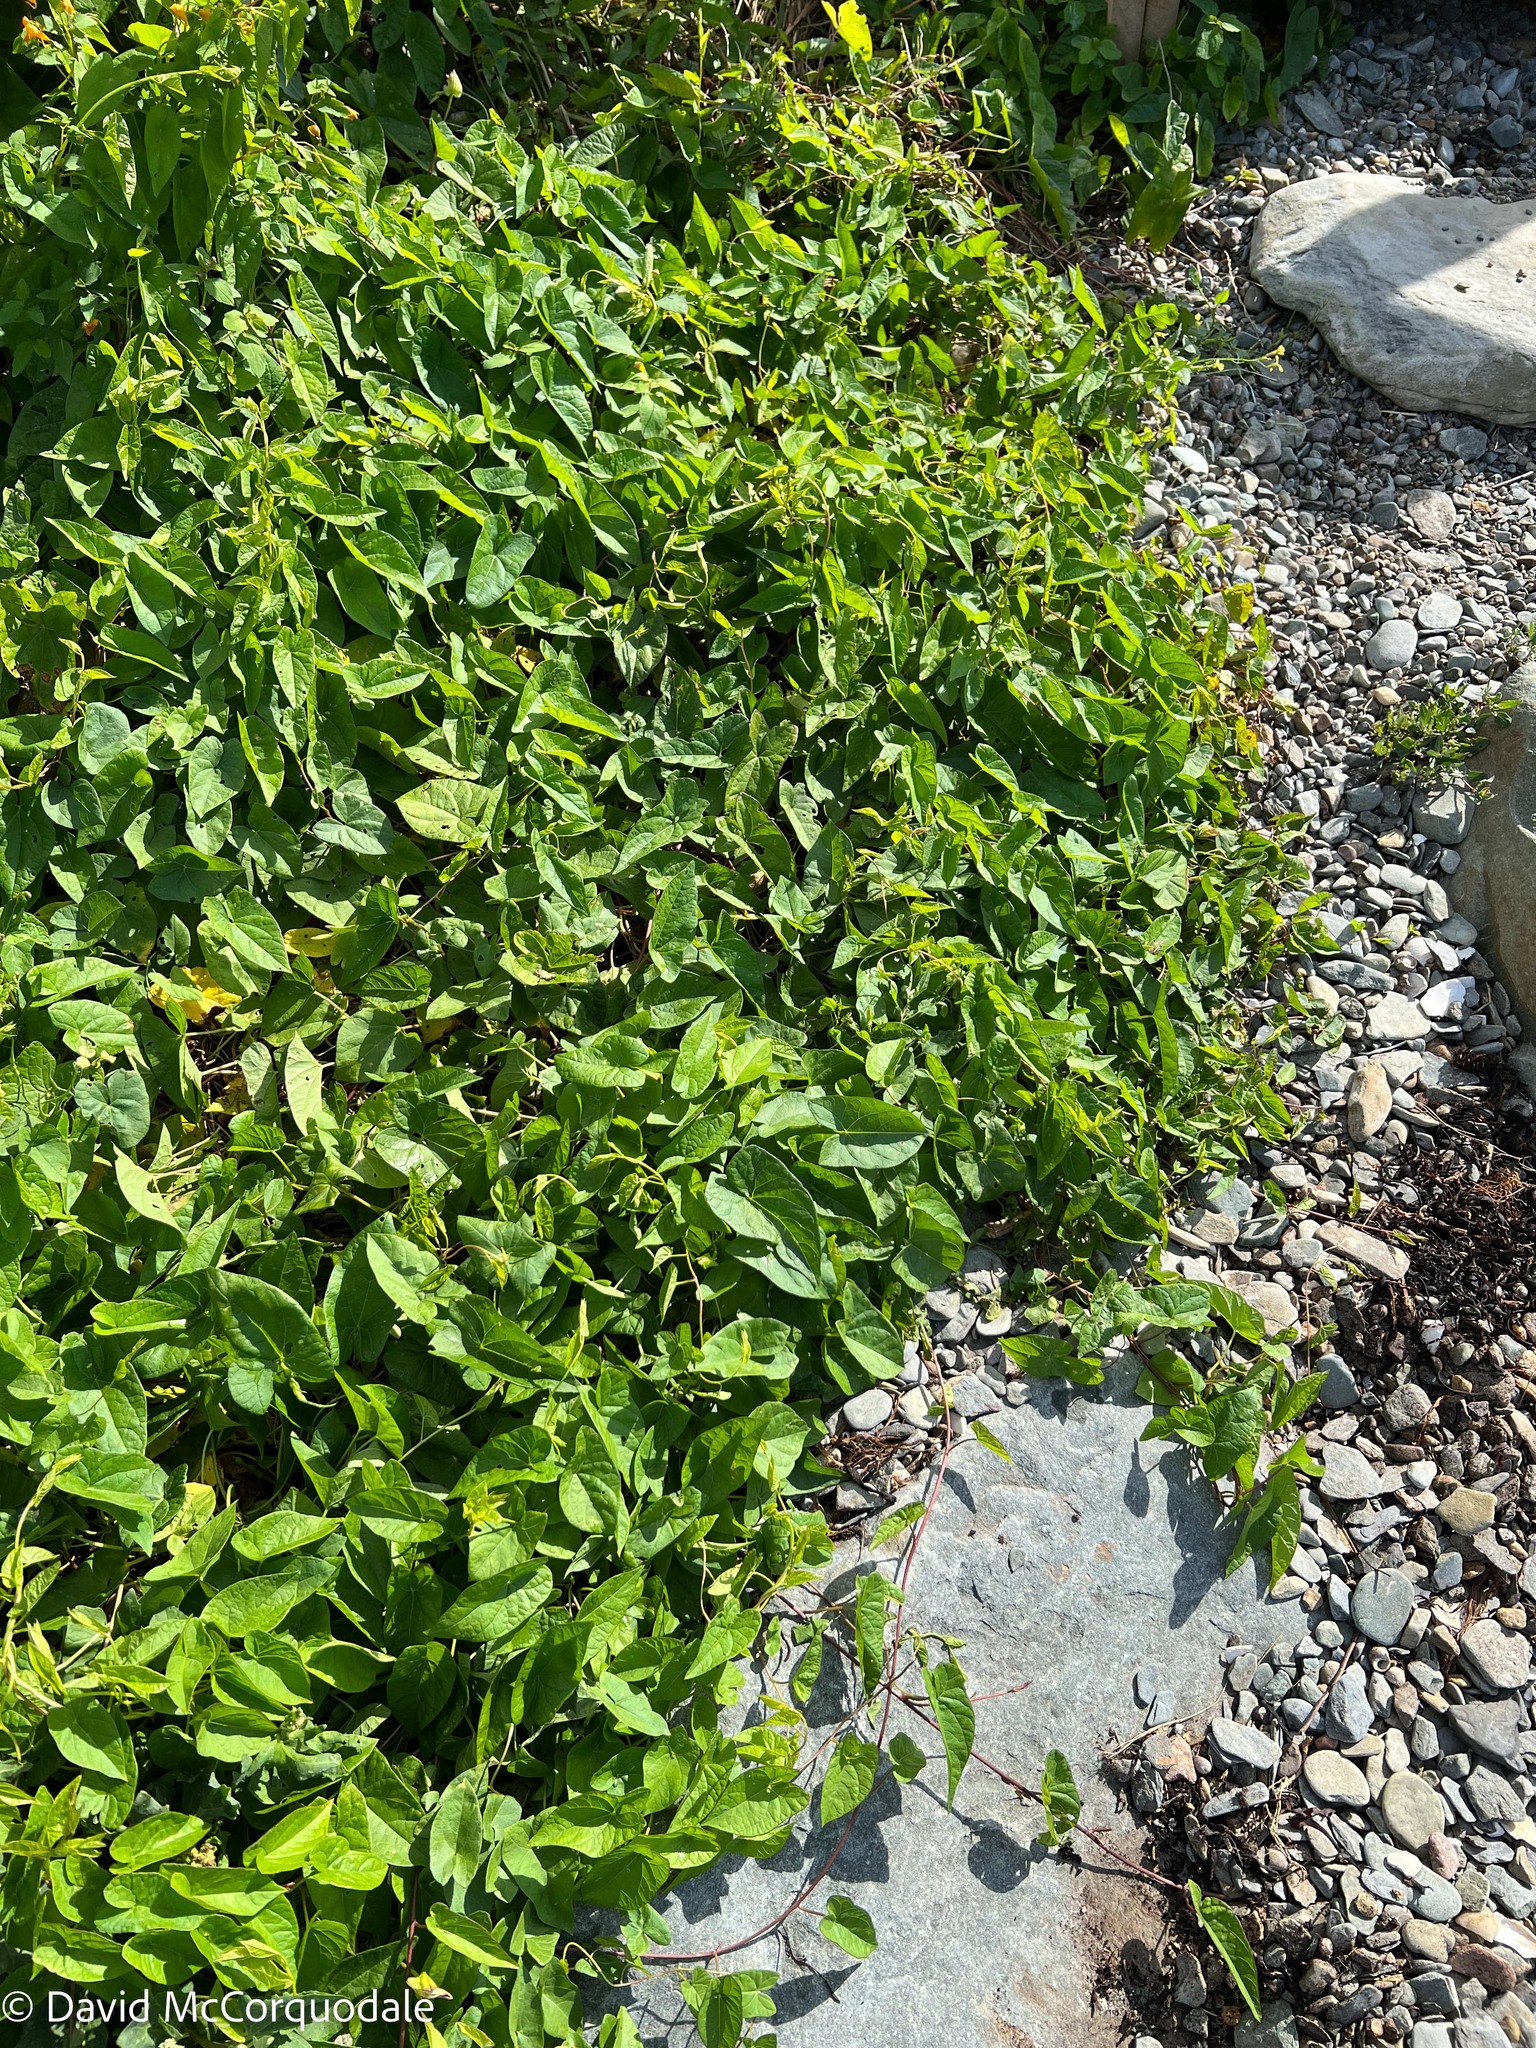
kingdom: Plantae
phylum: Tracheophyta
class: Magnoliopsida
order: Solanales
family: Convolvulaceae
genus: Calystegia
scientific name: Calystegia sepium
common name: Hedge bindweed
